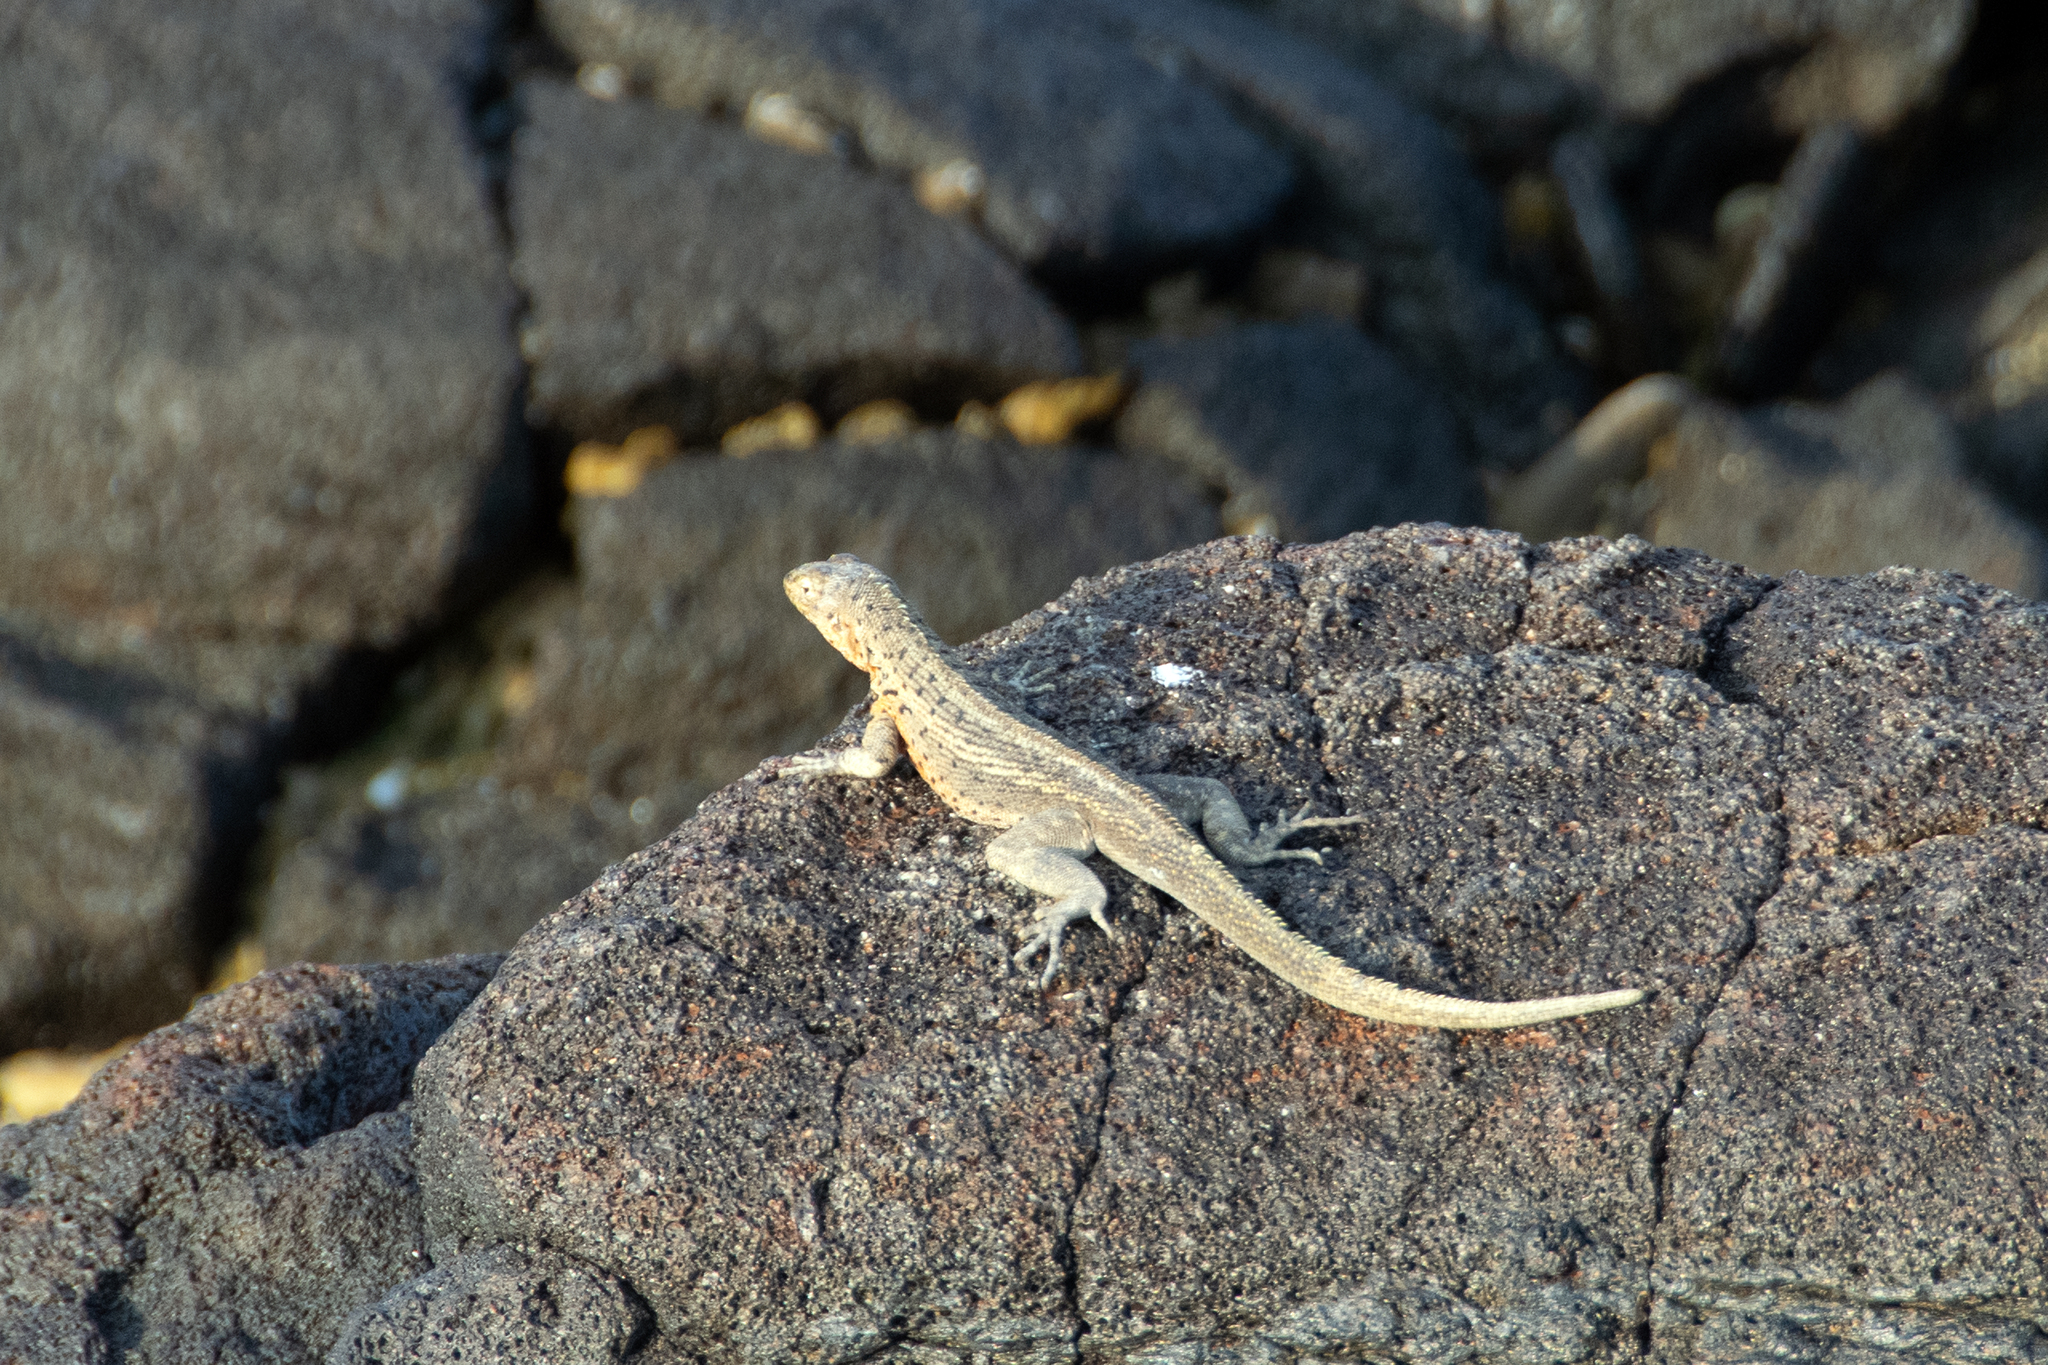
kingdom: Animalia
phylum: Chordata
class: Squamata
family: Tropiduridae
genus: Microlophus
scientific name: Microlophus jacobii
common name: Santiago lava lizard
